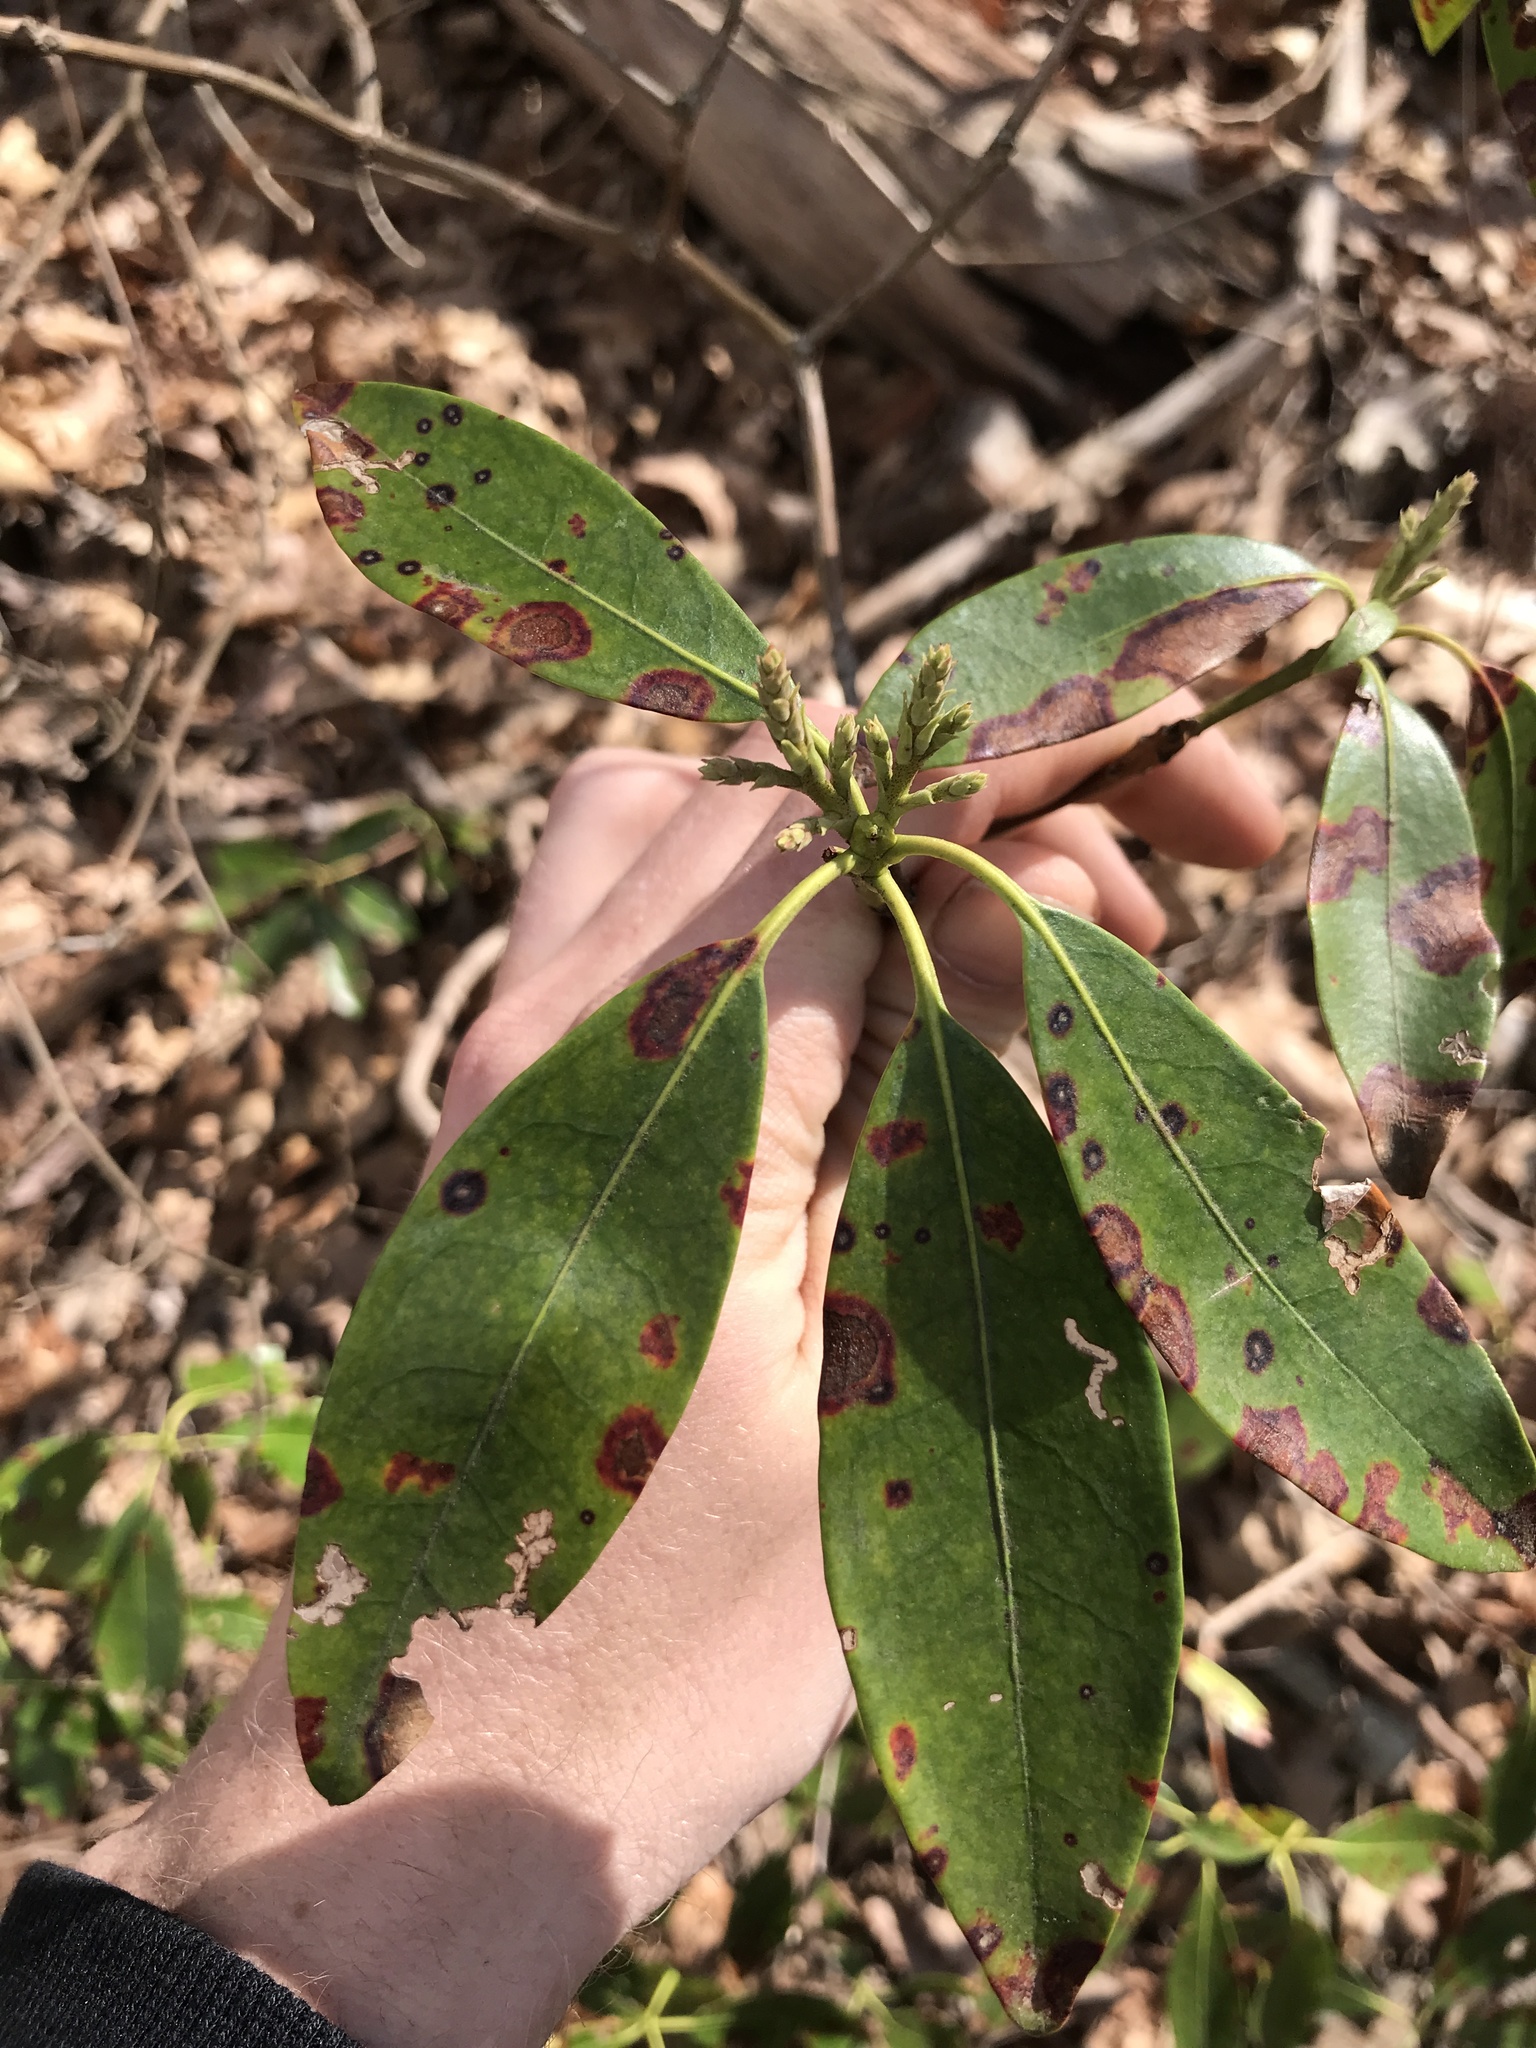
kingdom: Plantae
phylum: Tracheophyta
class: Magnoliopsida
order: Ericales
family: Ericaceae
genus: Kalmia
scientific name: Kalmia latifolia
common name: Mountain-laurel
